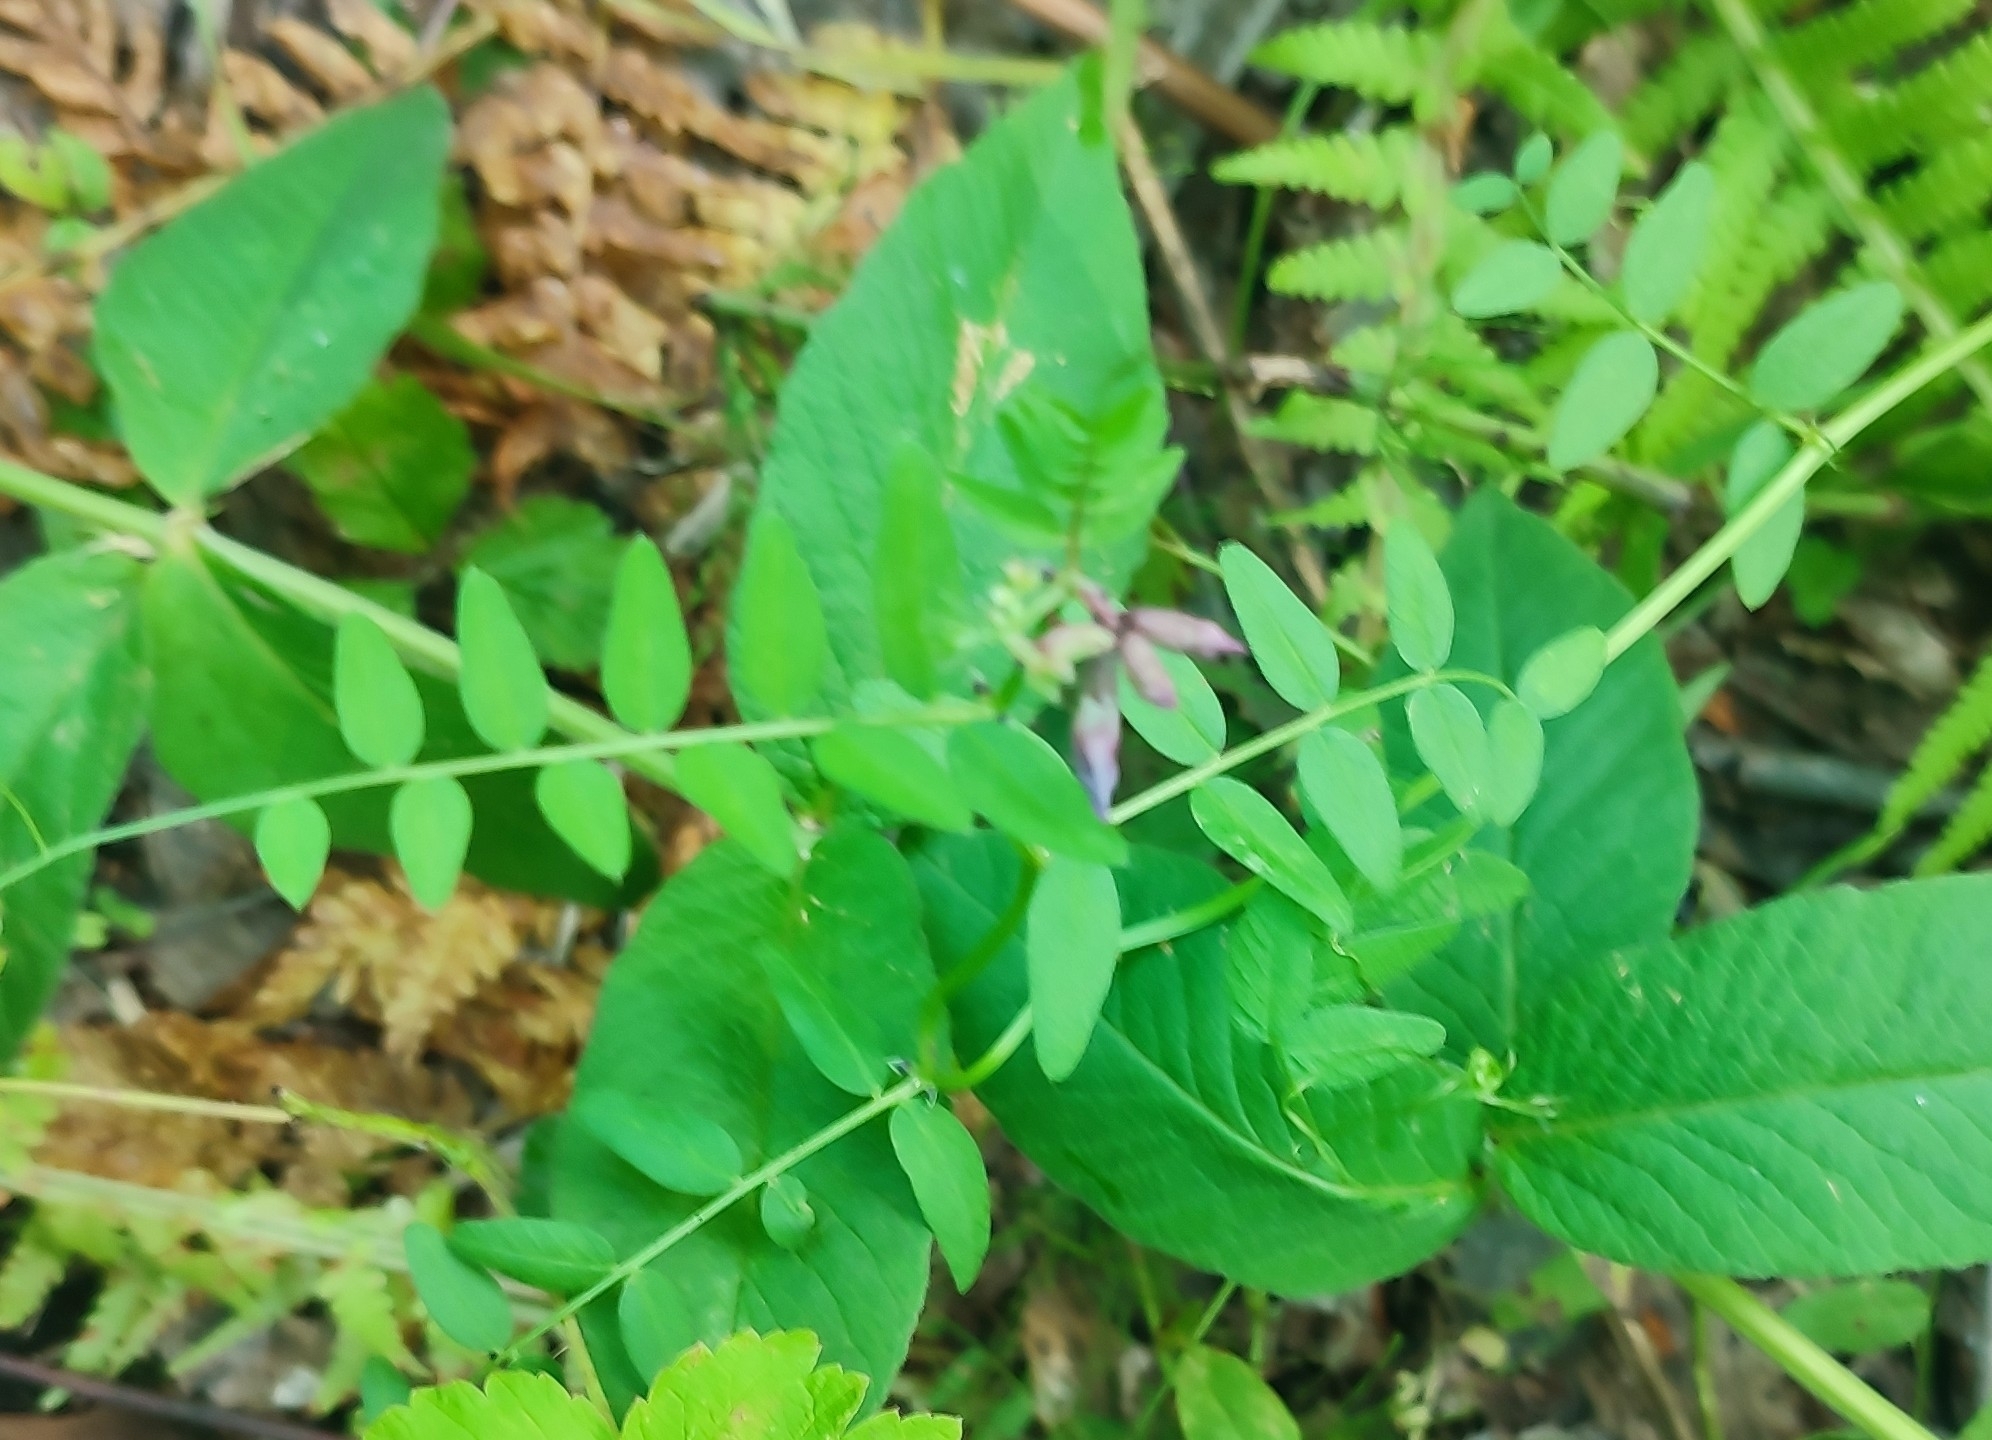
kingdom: Plantae
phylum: Tracheophyta
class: Magnoliopsida
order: Fabales
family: Fabaceae
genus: Vicia
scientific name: Vicia sepium
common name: Bush vetch
